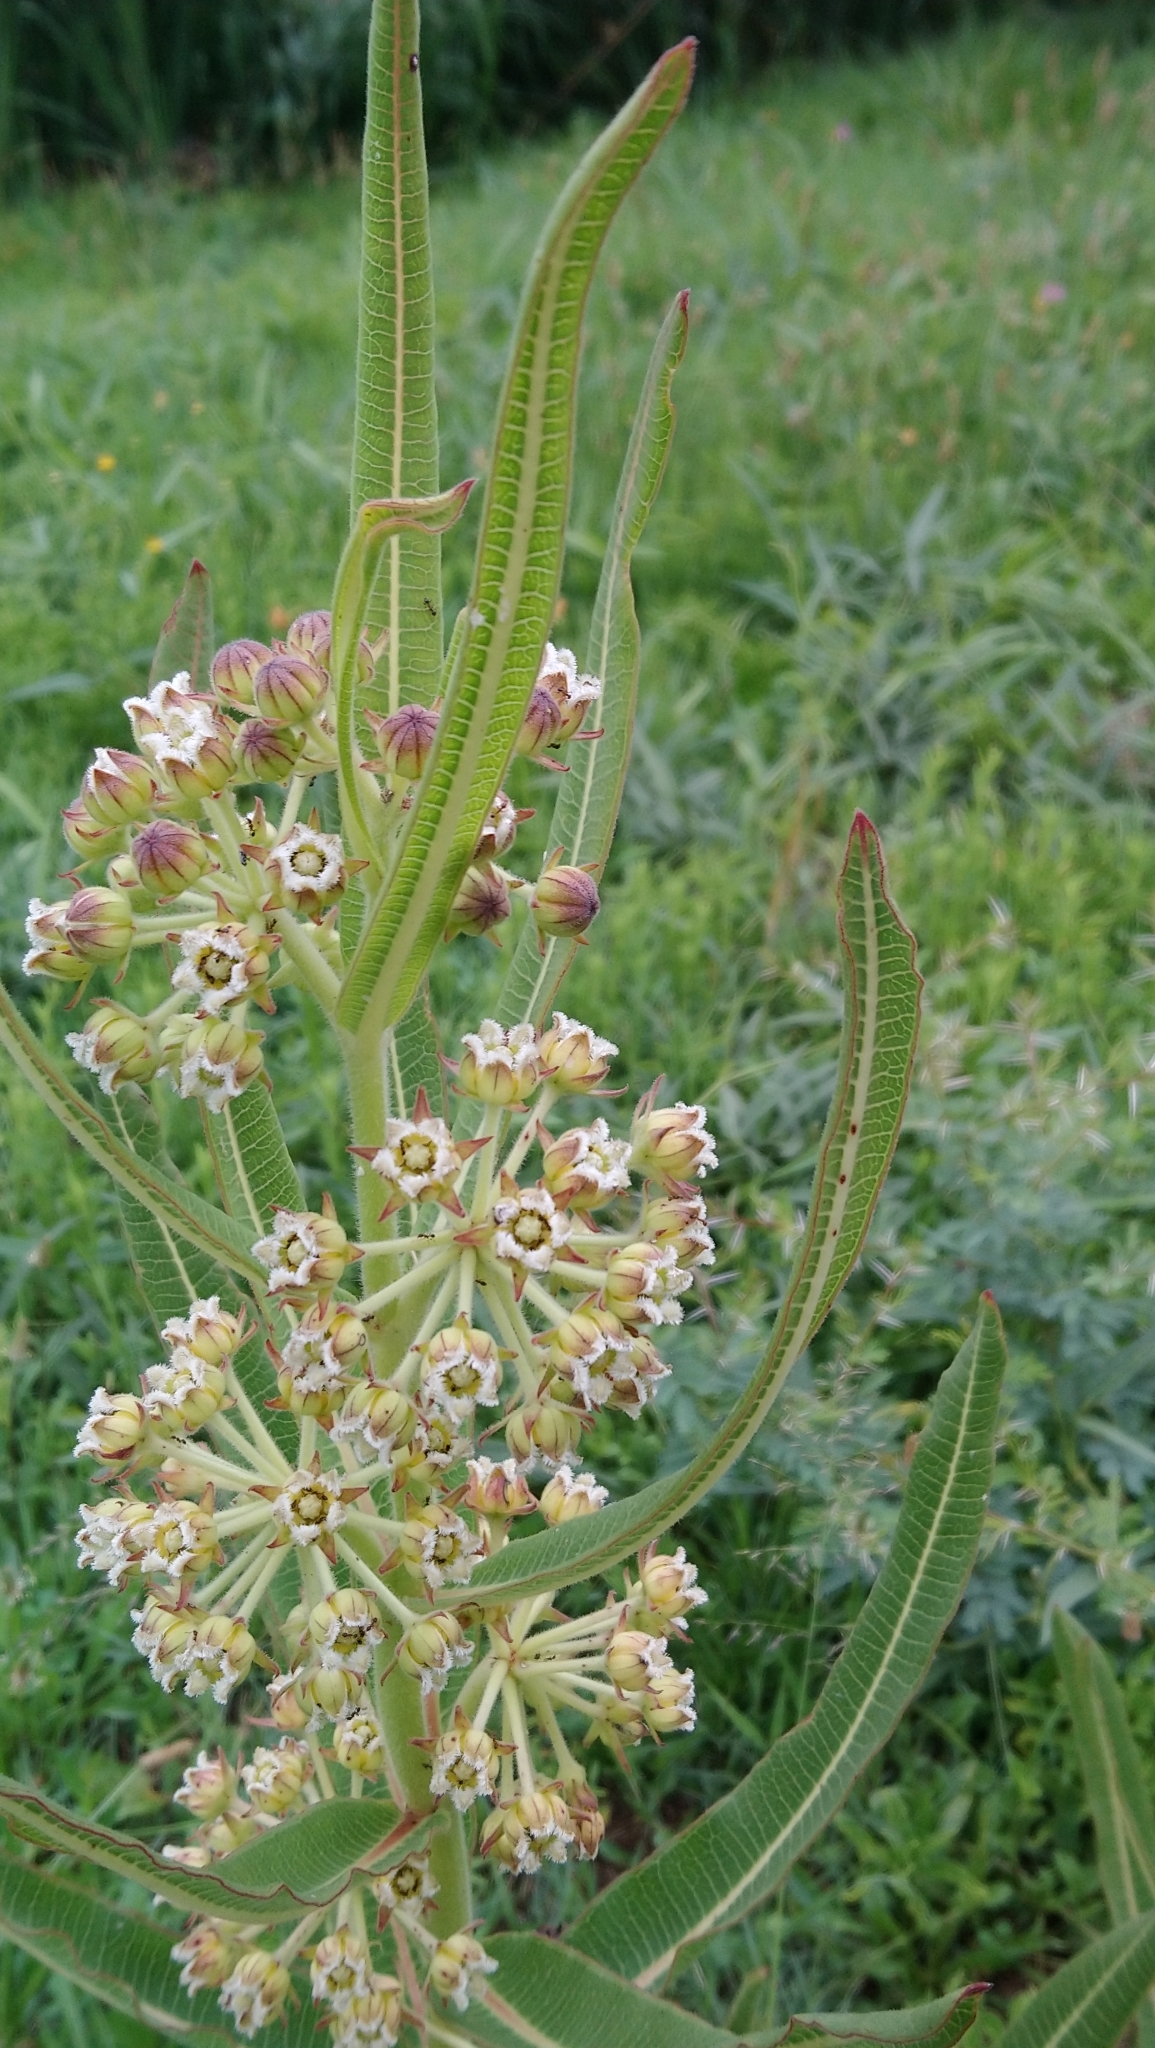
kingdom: Plantae
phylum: Tracheophyta
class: Magnoliopsida
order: Gentianales
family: Apocynaceae
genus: Xysmalobium
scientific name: Xysmalobium undulatum
